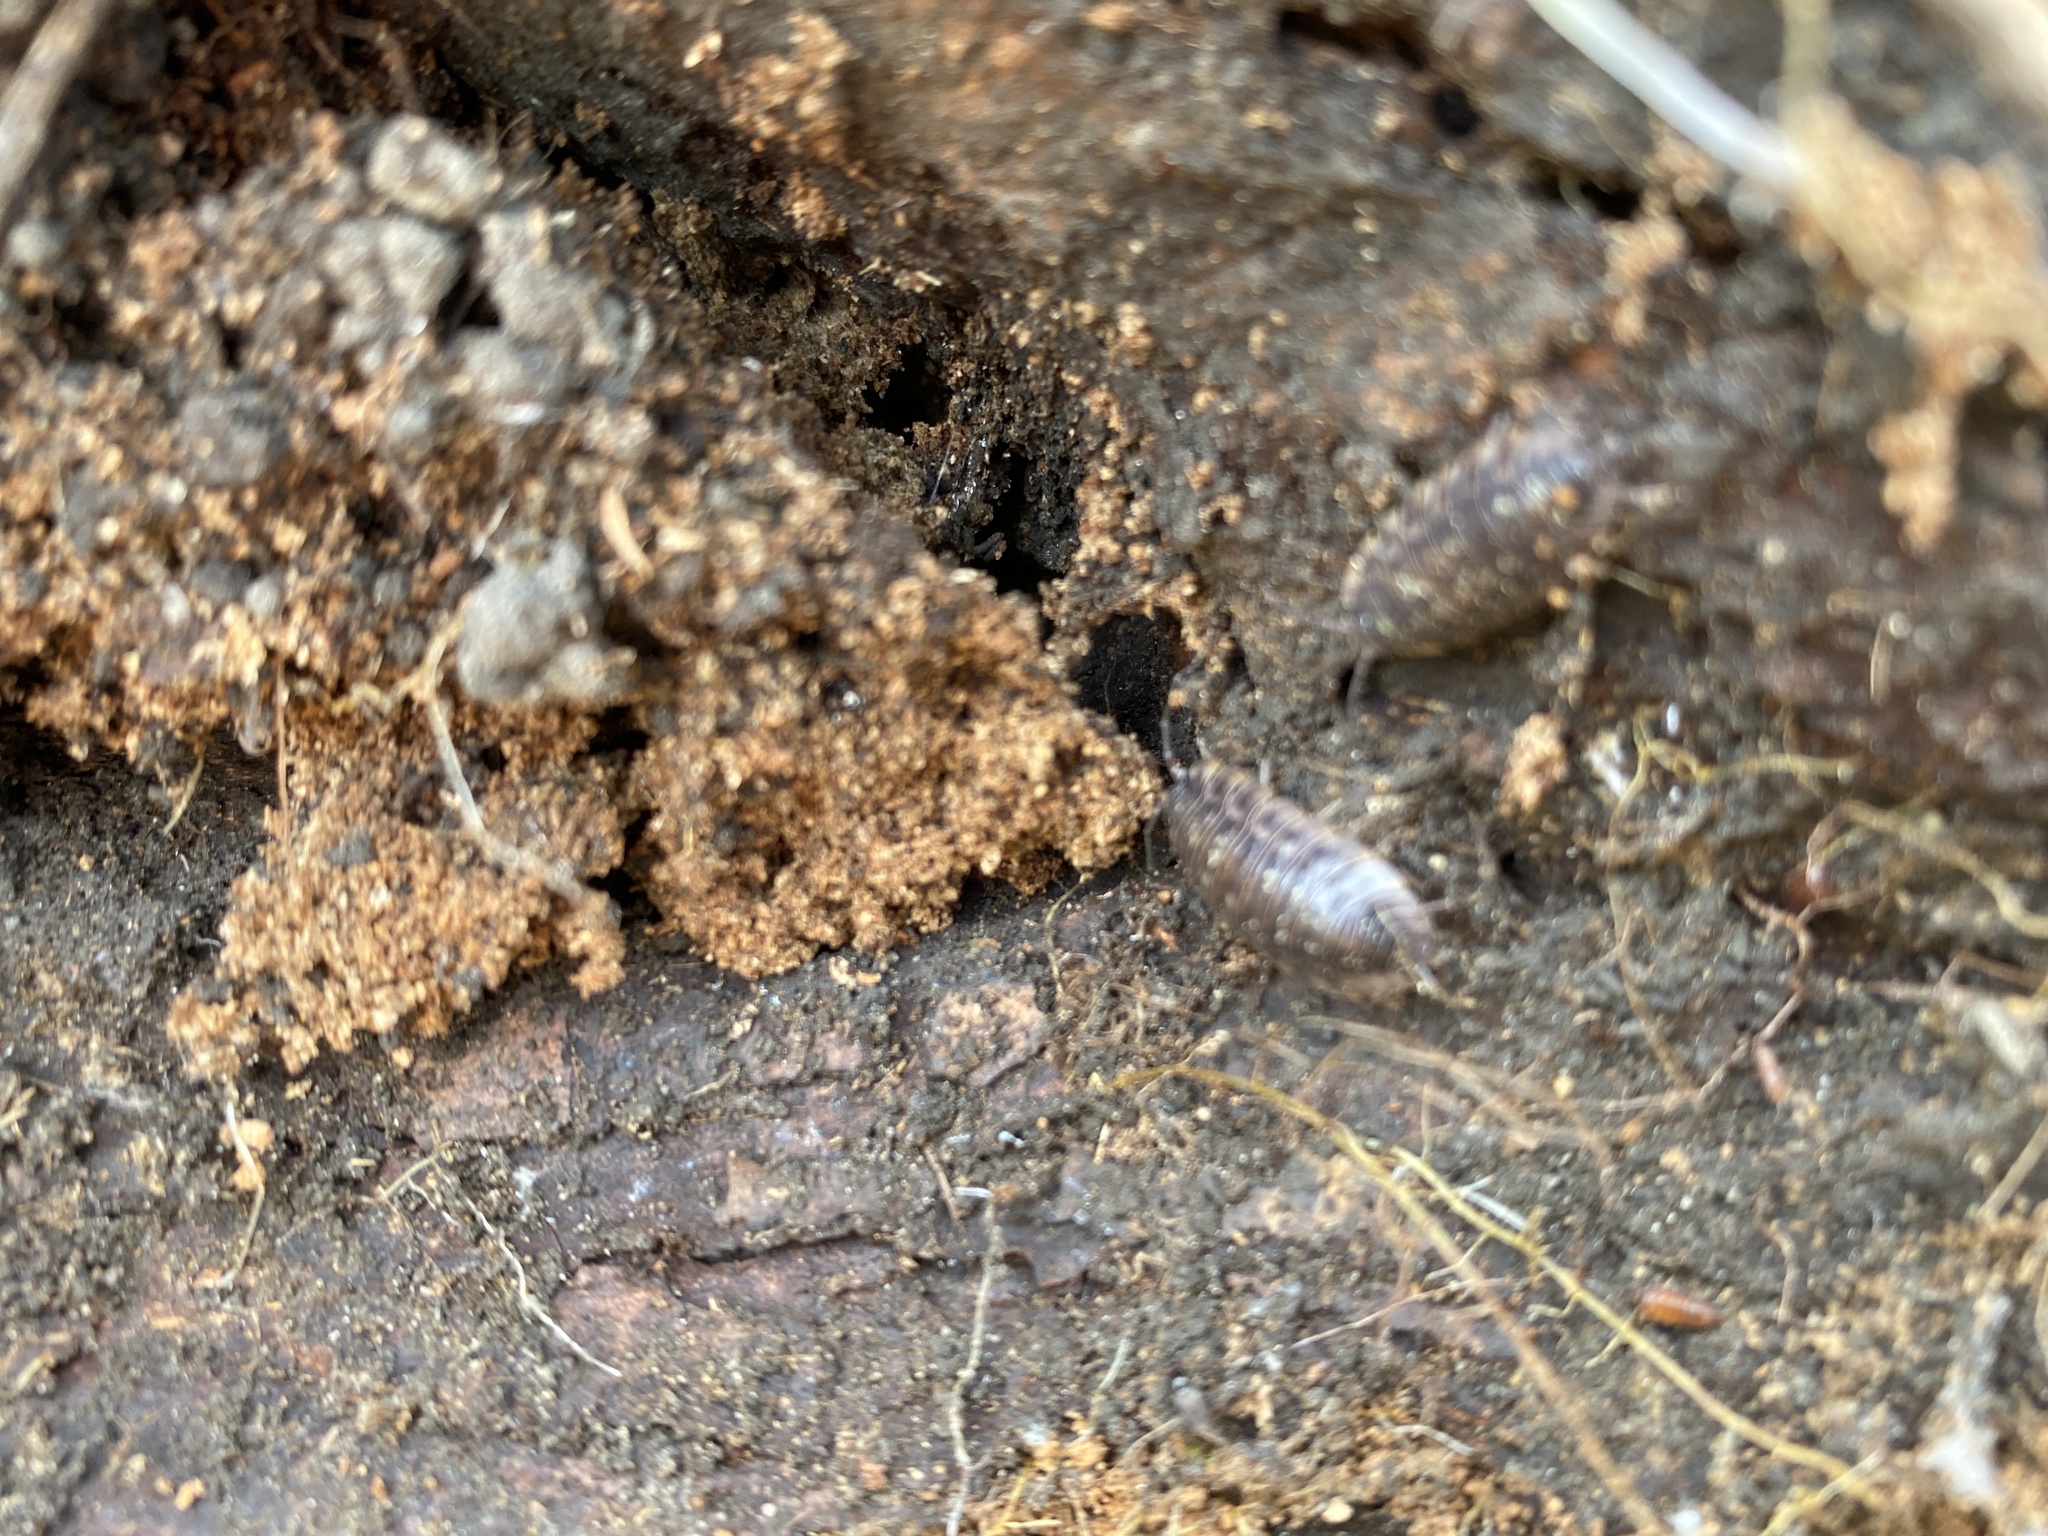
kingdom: Animalia
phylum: Arthropoda
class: Malacostraca
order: Isopoda
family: Oniscidae
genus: Oniscus
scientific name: Oniscus asellus
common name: Common shiny woodlouse
